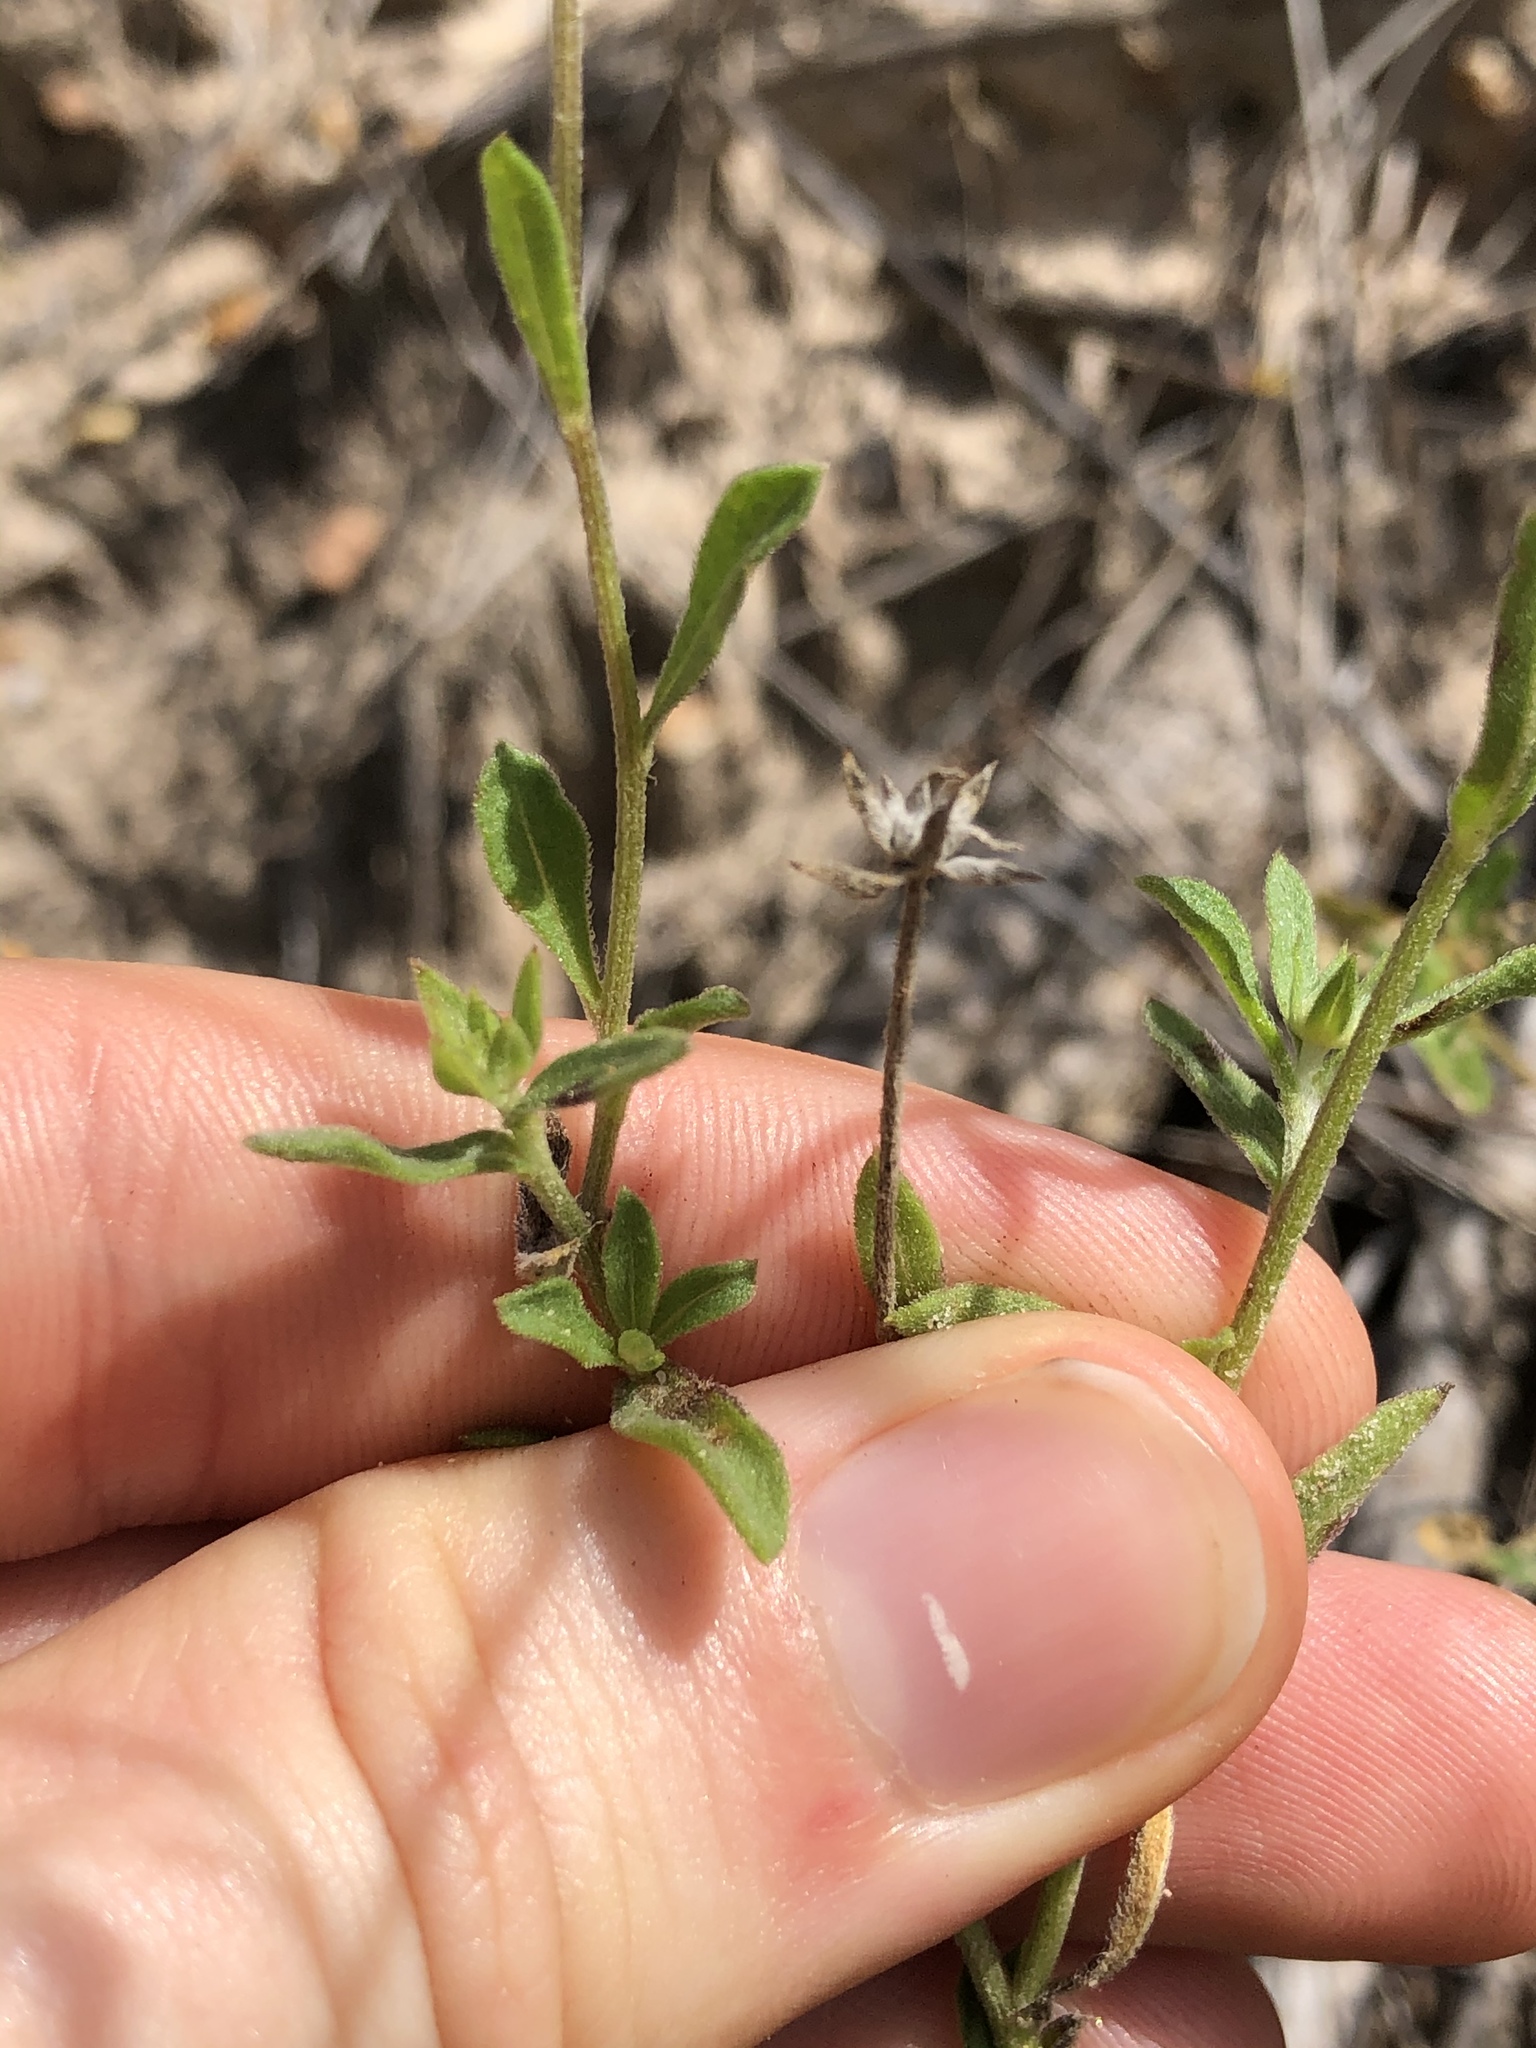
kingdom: Plantae
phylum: Tracheophyta
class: Magnoliopsida
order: Asterales
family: Asteraceae
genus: Gaillardia
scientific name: Gaillardia aestivalis
